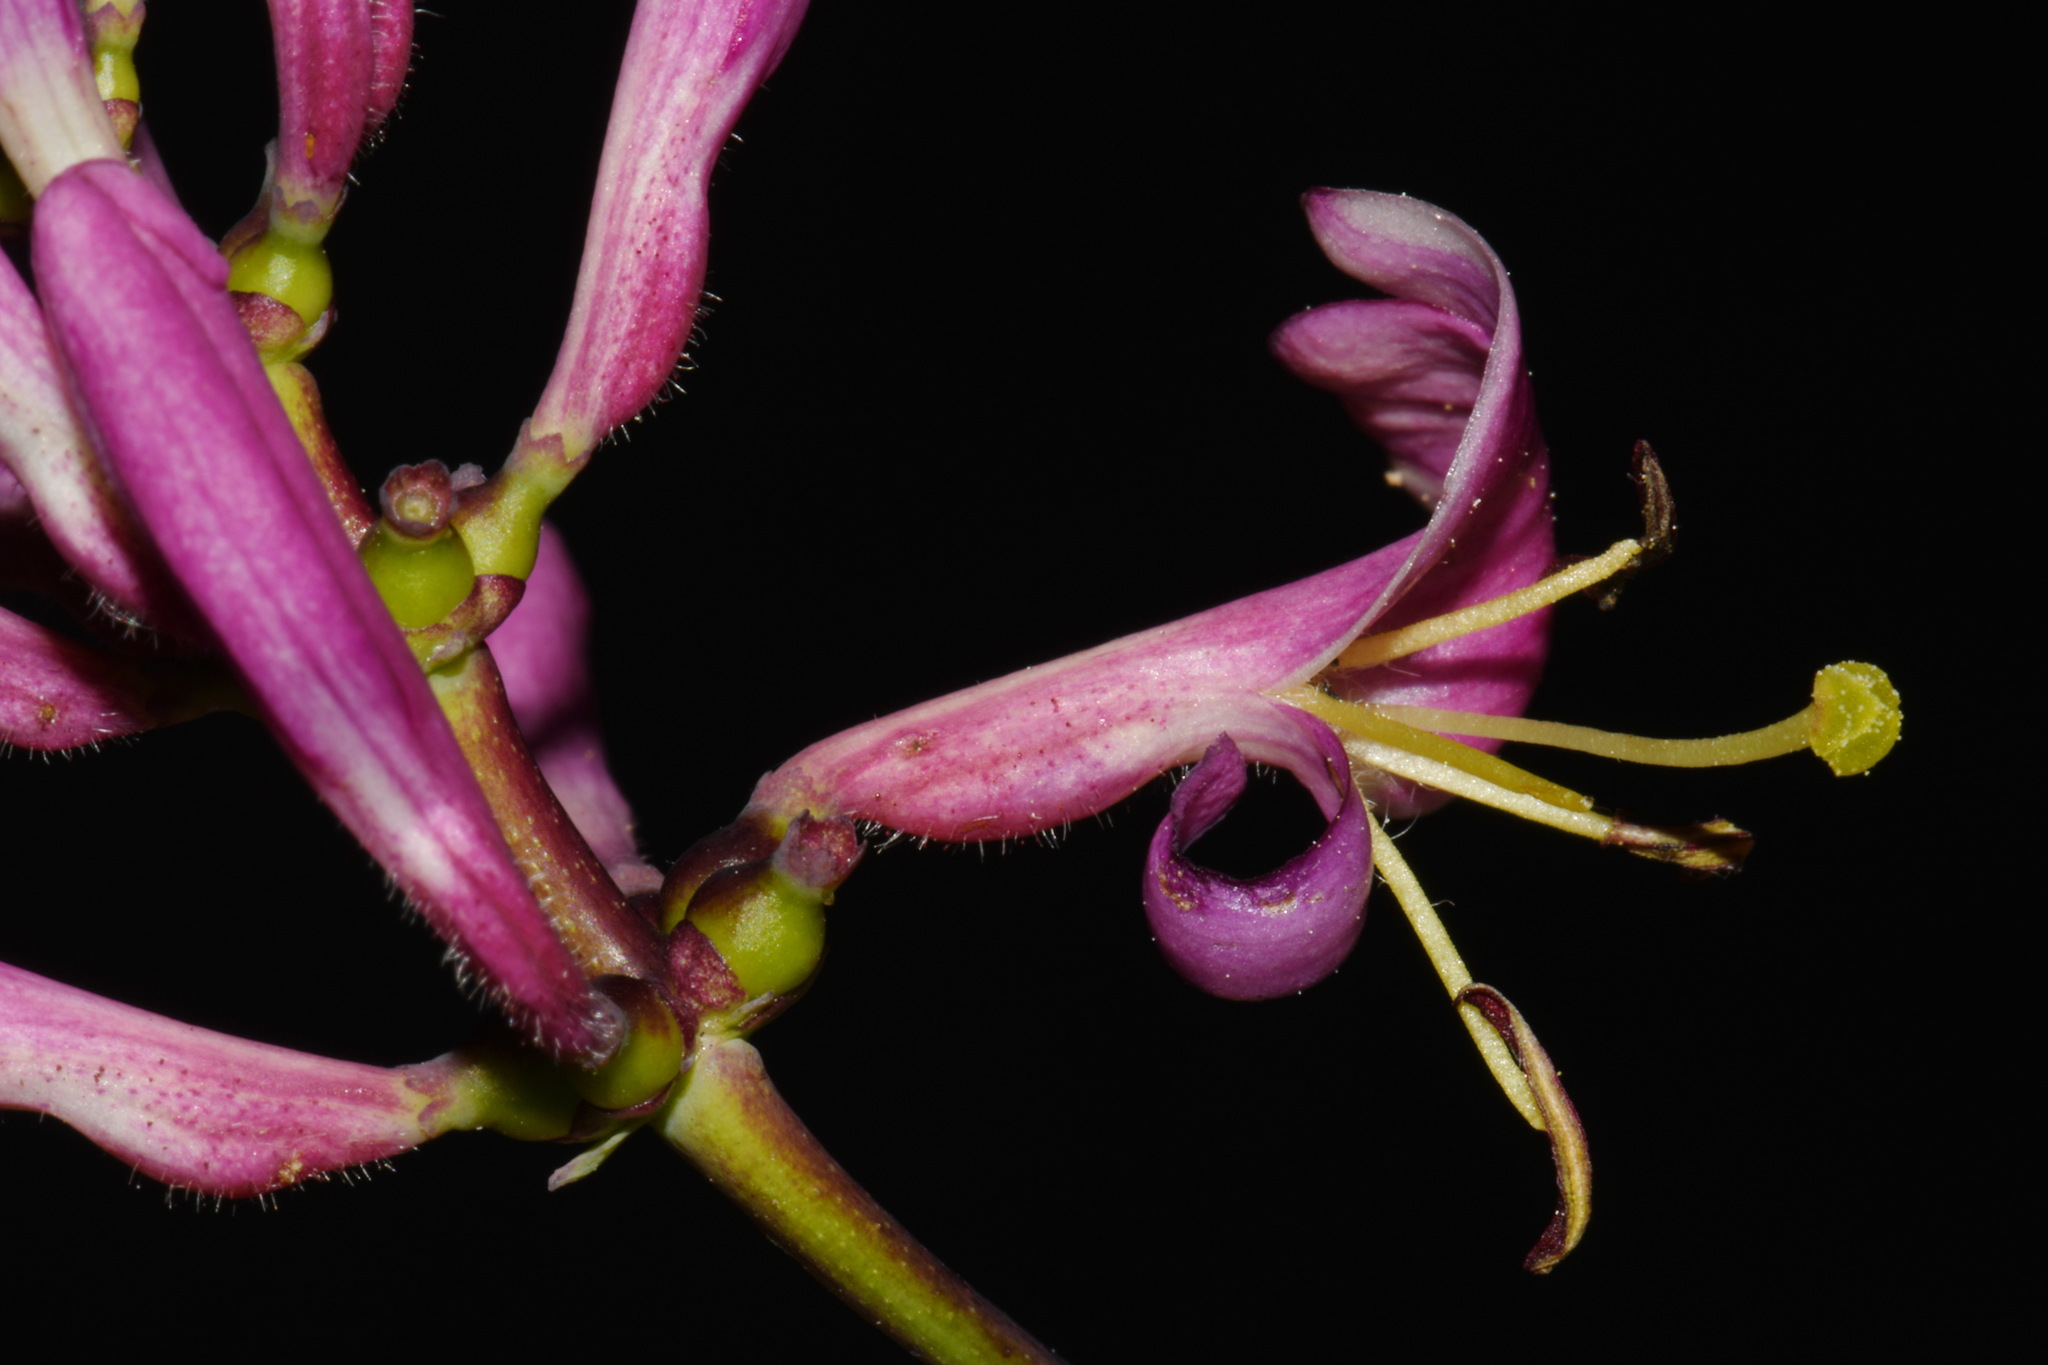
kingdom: Plantae
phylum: Tracheophyta
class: Magnoliopsida
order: Dipsacales
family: Caprifoliaceae
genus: Lonicera
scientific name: Lonicera hispidula
